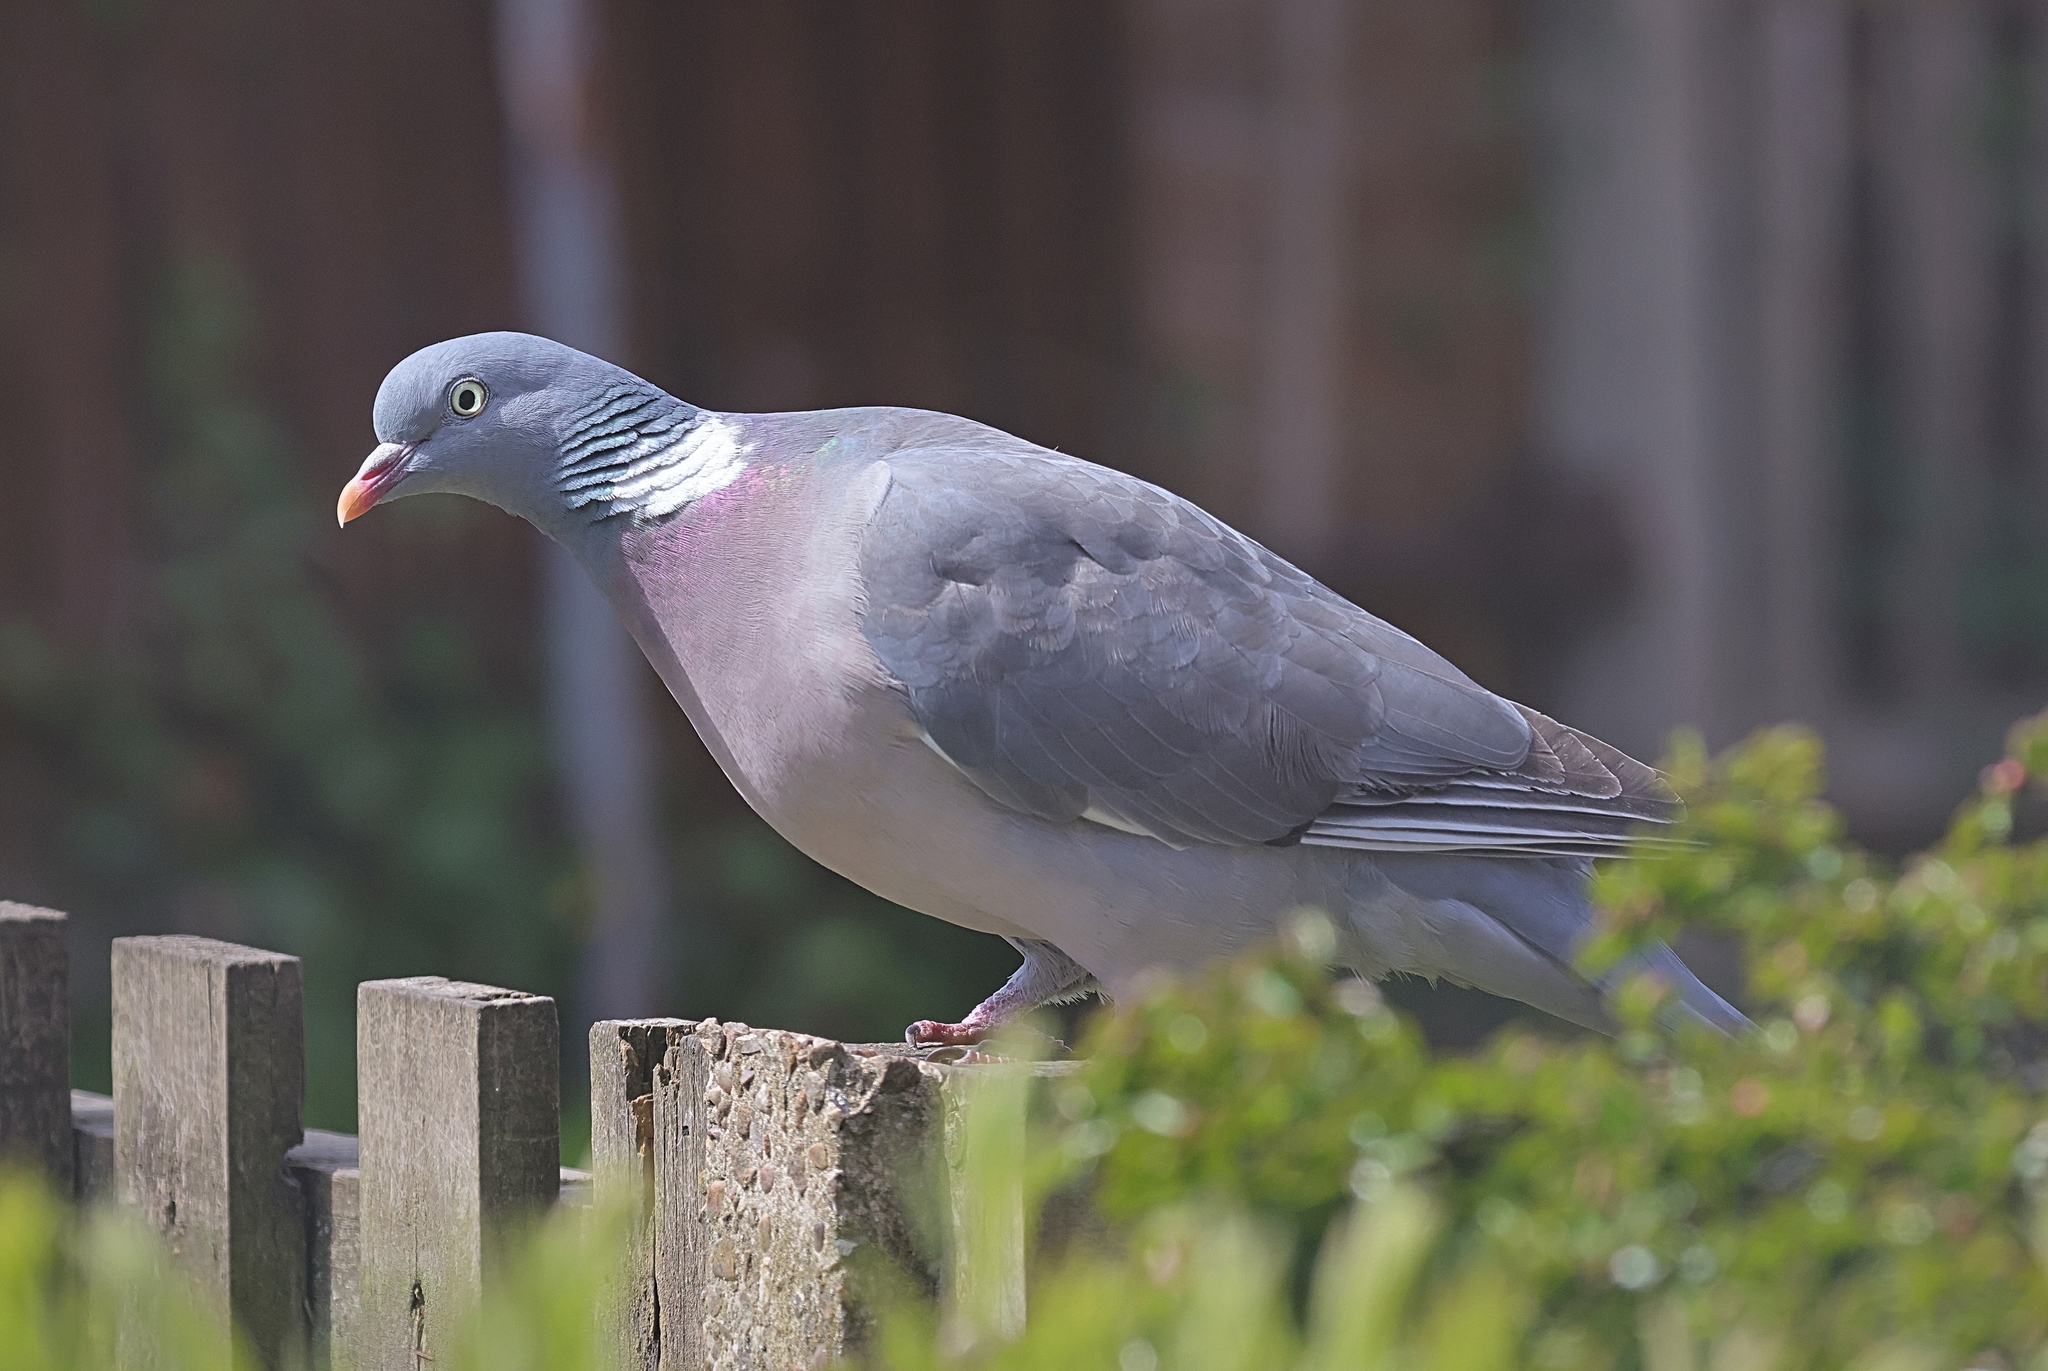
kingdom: Animalia
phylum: Chordata
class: Aves
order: Columbiformes
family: Columbidae
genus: Columba
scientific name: Columba palumbus
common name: Common wood pigeon
